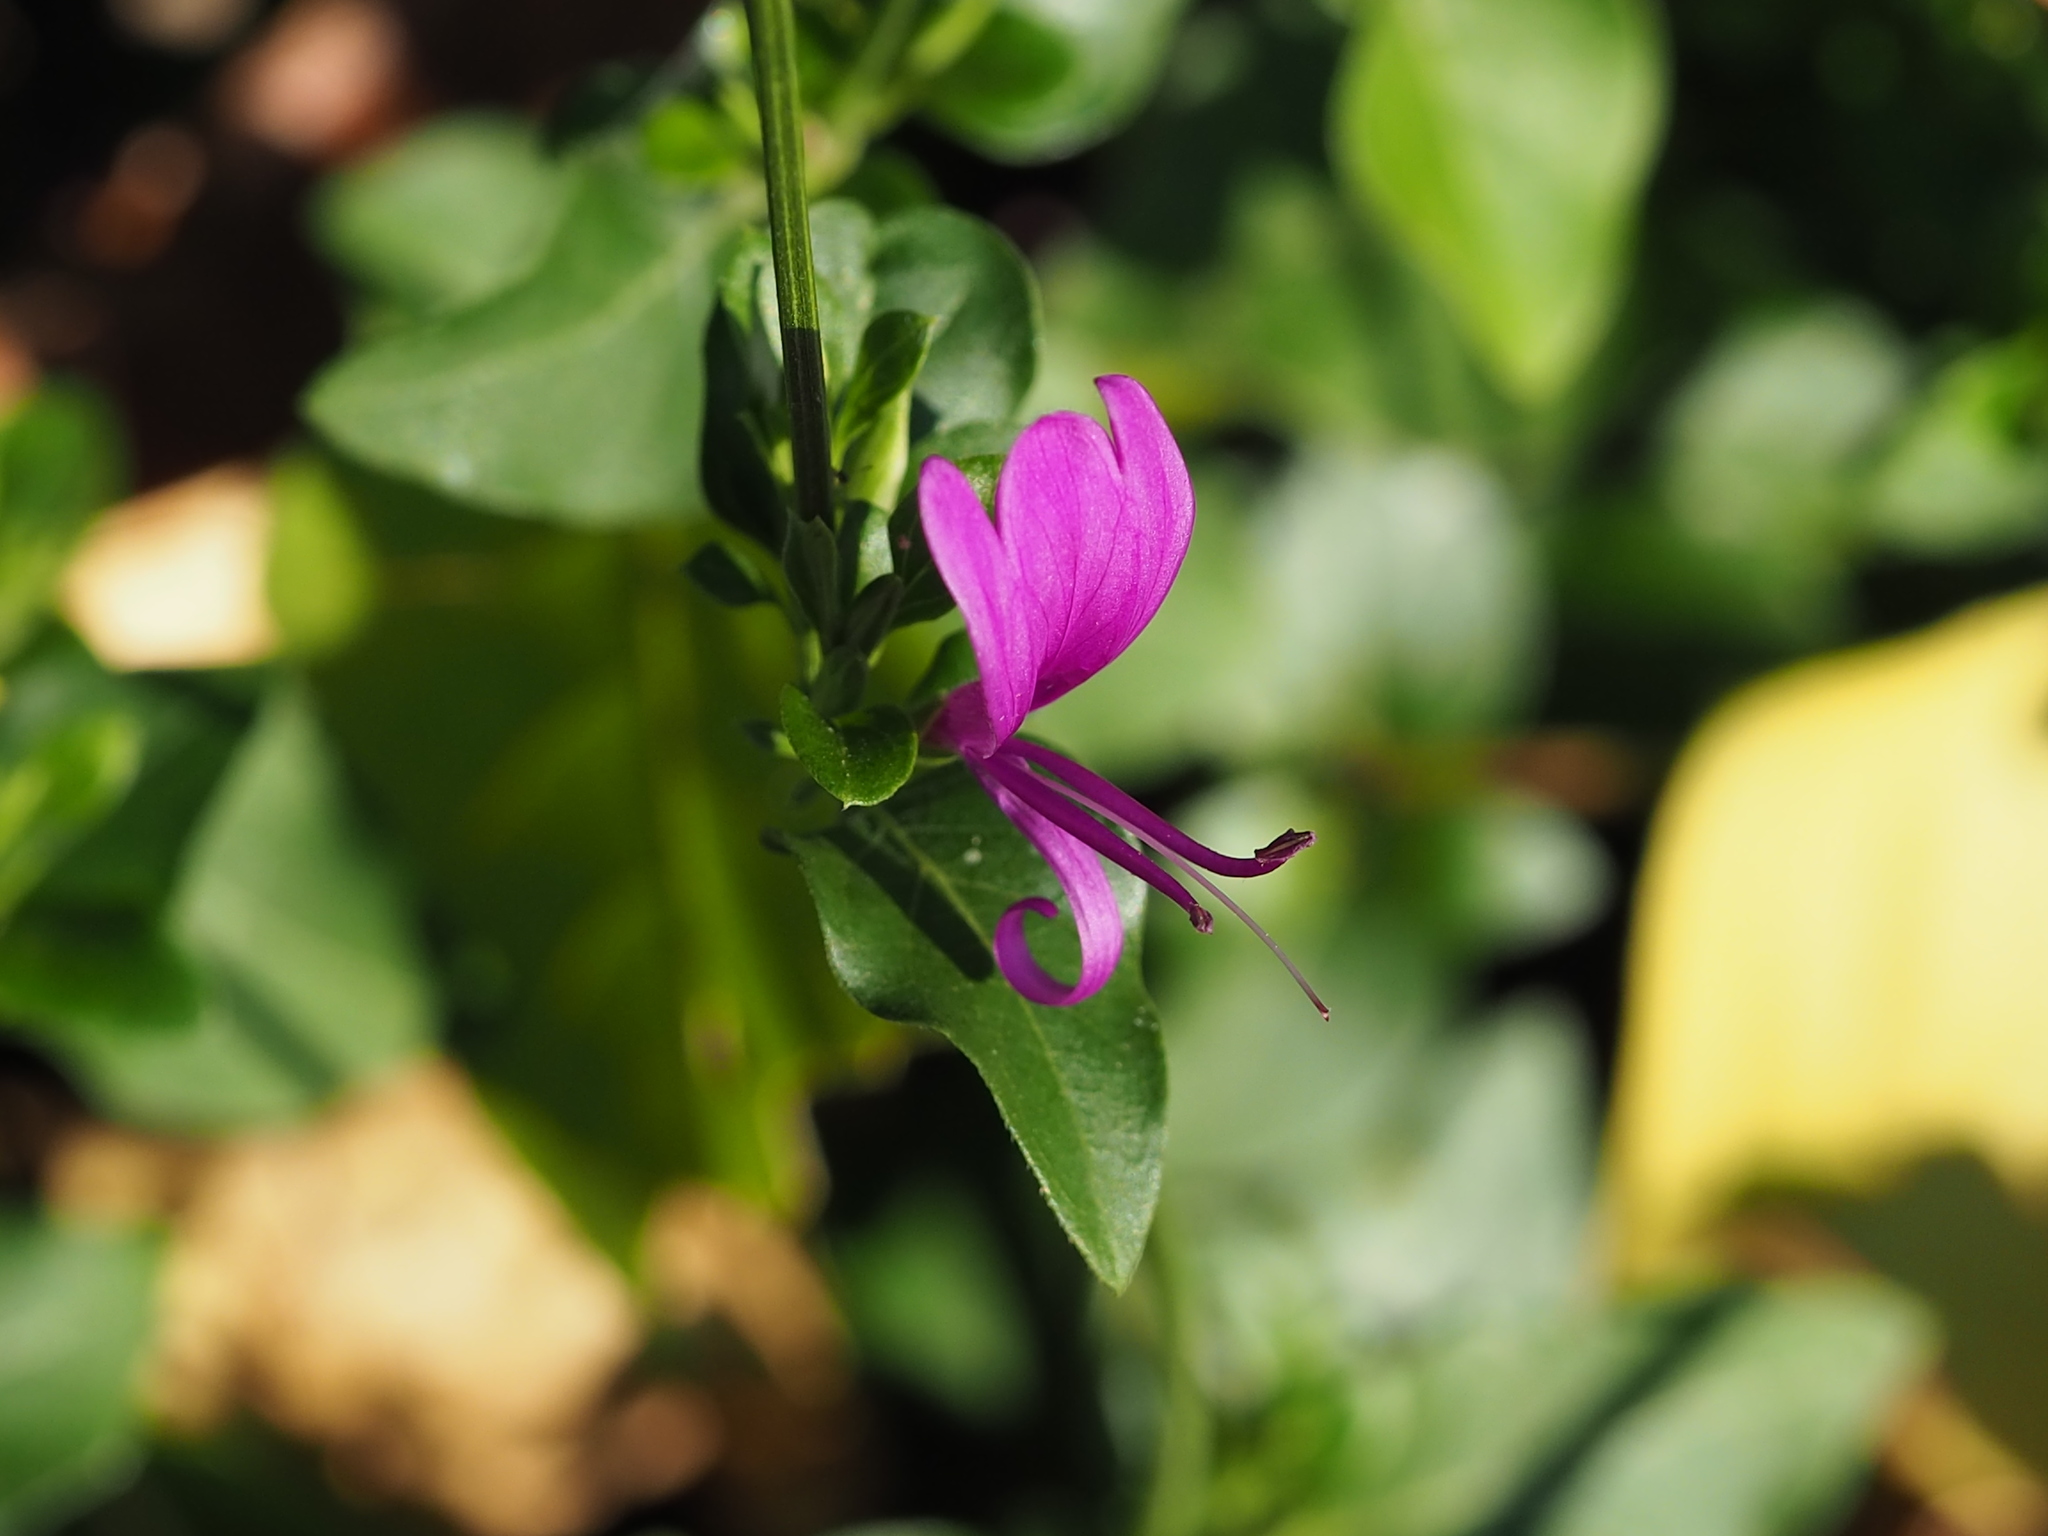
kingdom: Plantae
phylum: Tracheophyta
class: Magnoliopsida
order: Lamiales
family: Acanthaceae
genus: Hypoestes
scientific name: Hypoestes purpurea
